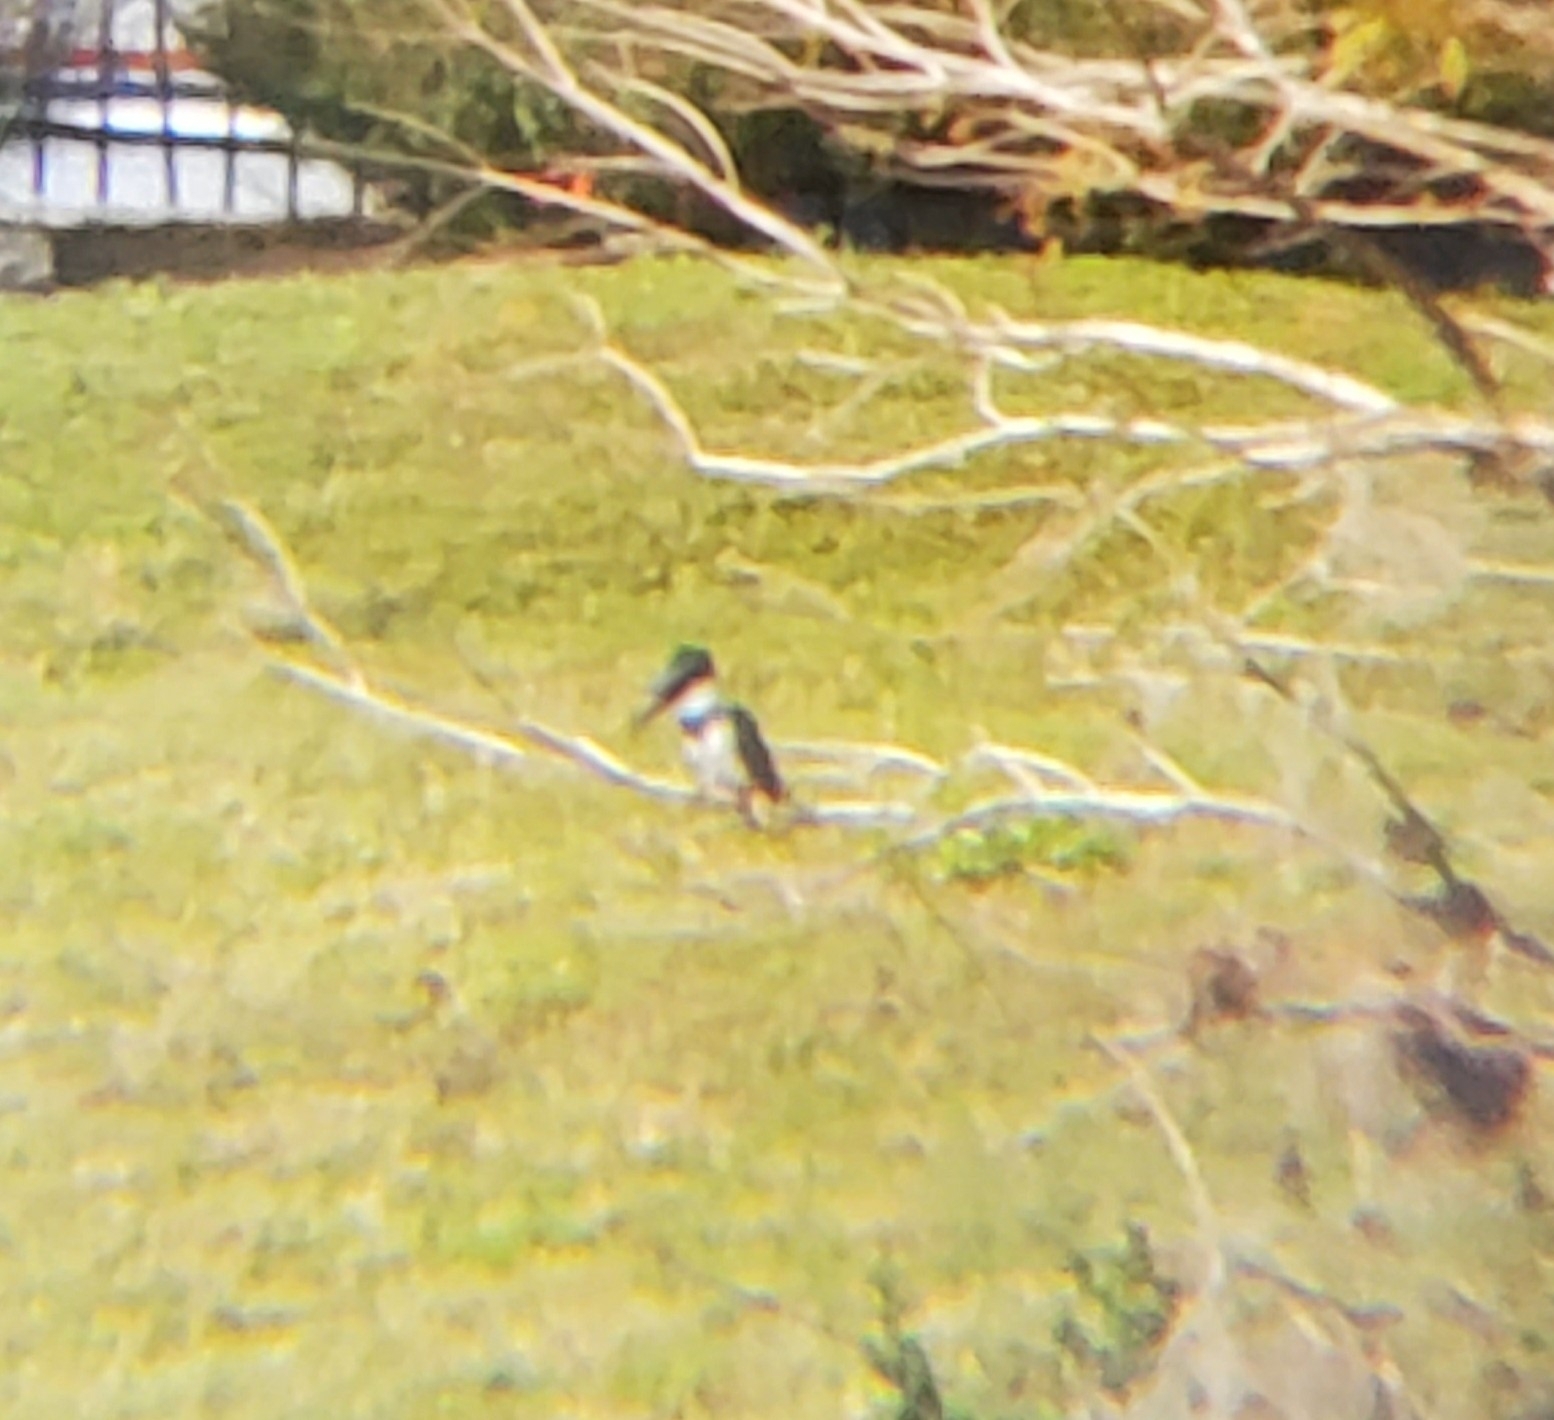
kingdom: Animalia
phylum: Chordata
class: Aves
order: Coraciiformes
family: Alcedinidae
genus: Megaceryle
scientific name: Megaceryle alcyon
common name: Belted kingfisher
